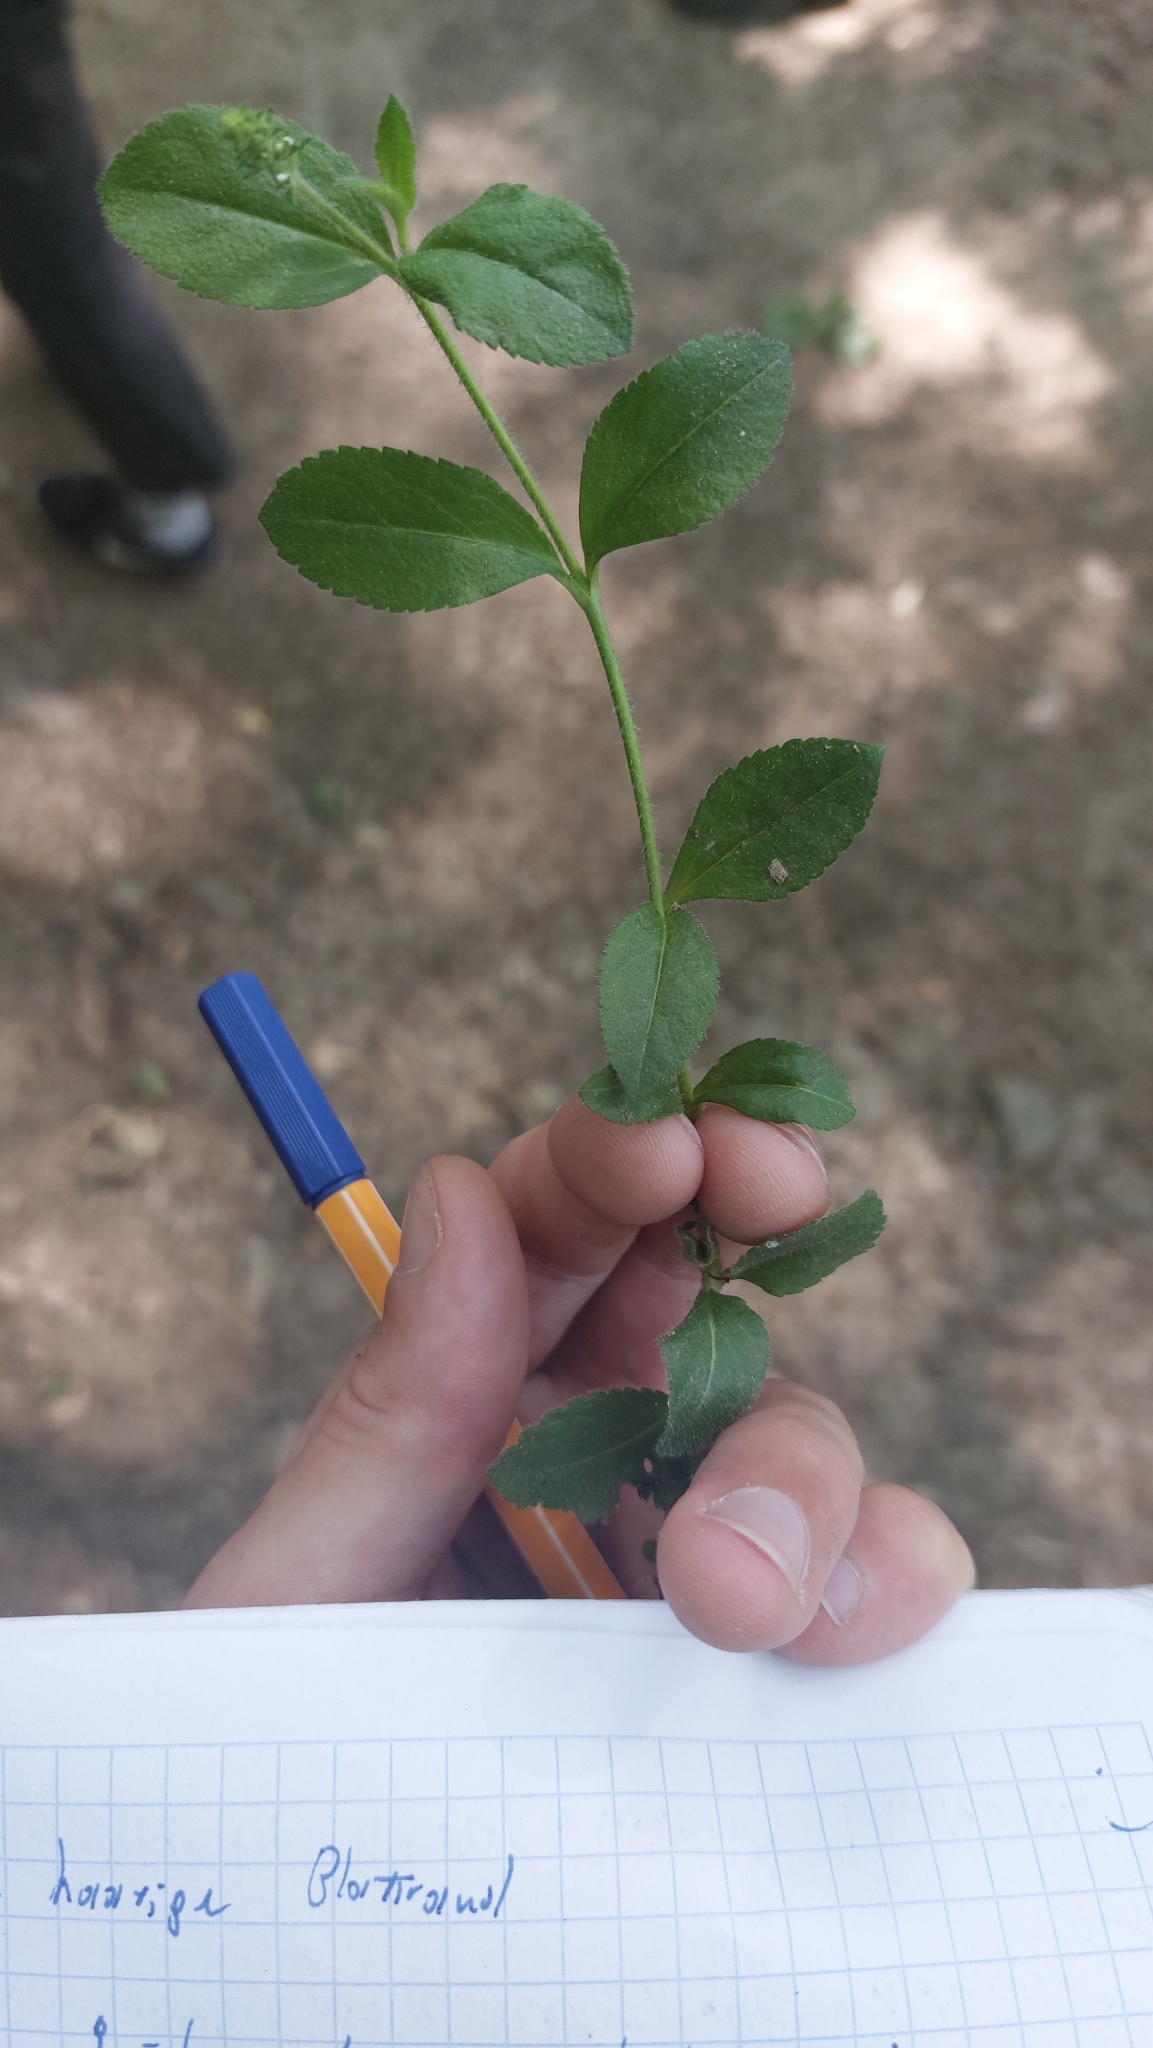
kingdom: Plantae
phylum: Tracheophyta
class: Magnoliopsida
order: Lamiales
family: Plantaginaceae
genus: Veronica
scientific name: Veronica officinalis
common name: Common speedwell
